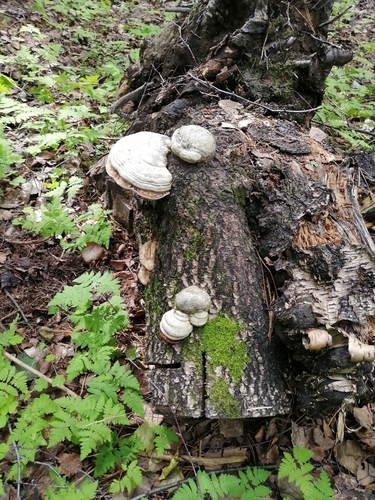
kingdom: Fungi
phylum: Basidiomycota
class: Agaricomycetes
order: Polyporales
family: Polyporaceae
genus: Fomes
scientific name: Fomes fomentarius
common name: Hoof fungus
